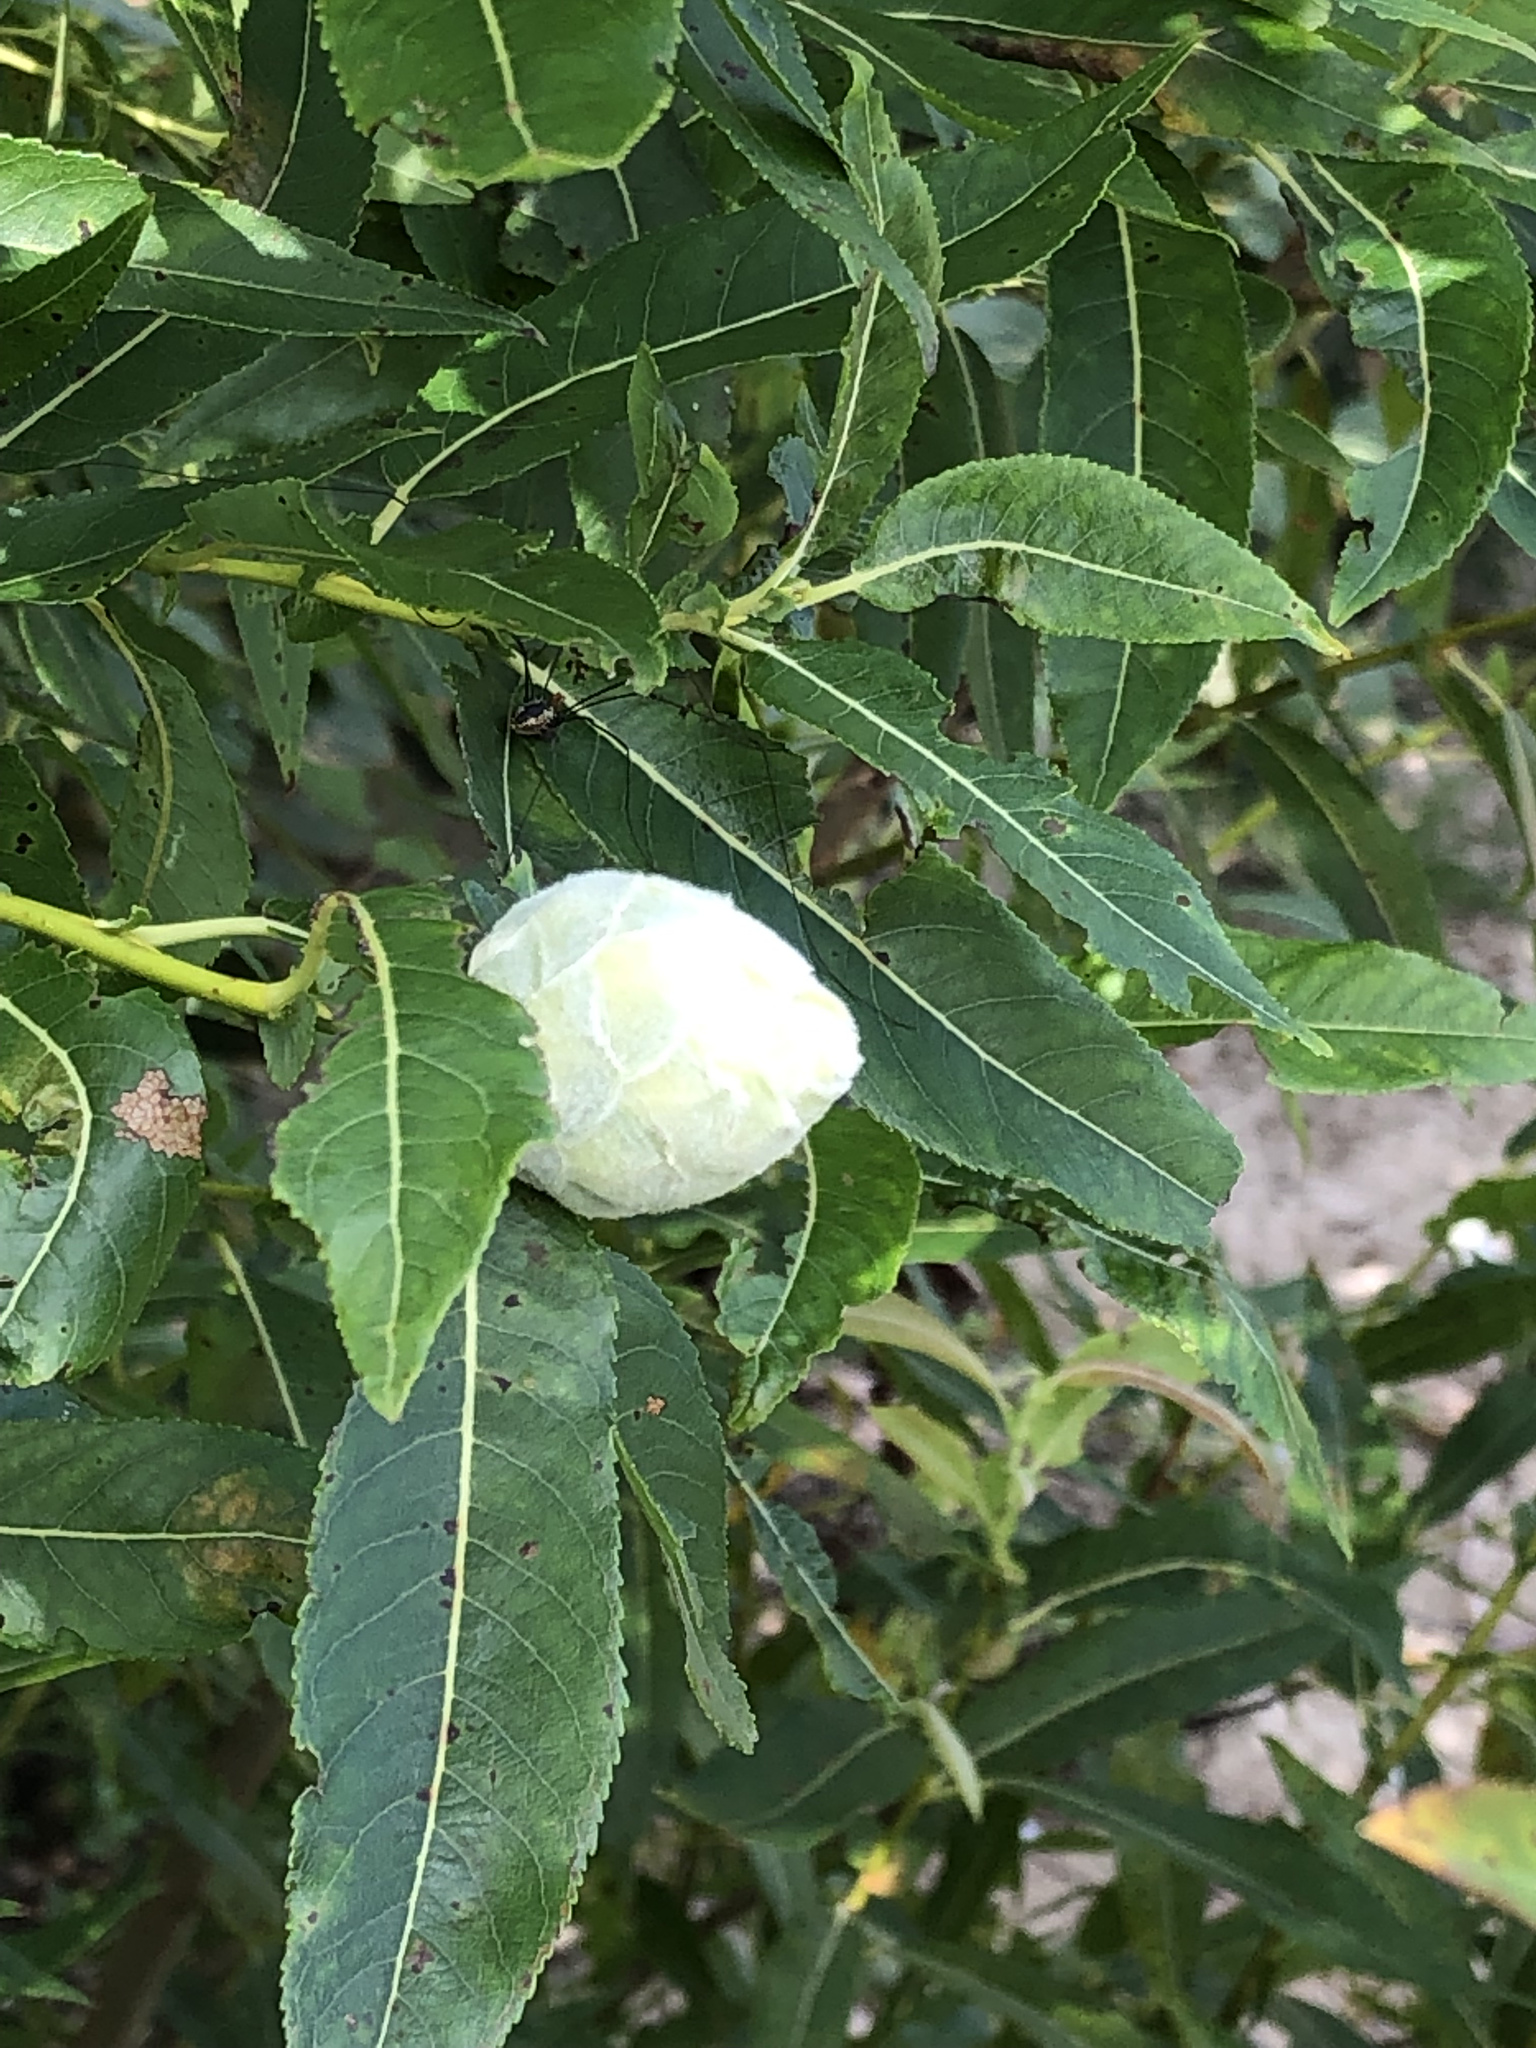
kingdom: Animalia
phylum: Arthropoda
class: Insecta
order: Diptera
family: Cecidomyiidae
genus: Rabdophaga
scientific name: Rabdophaga strobiloides
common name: Willow pinecone gall midge
